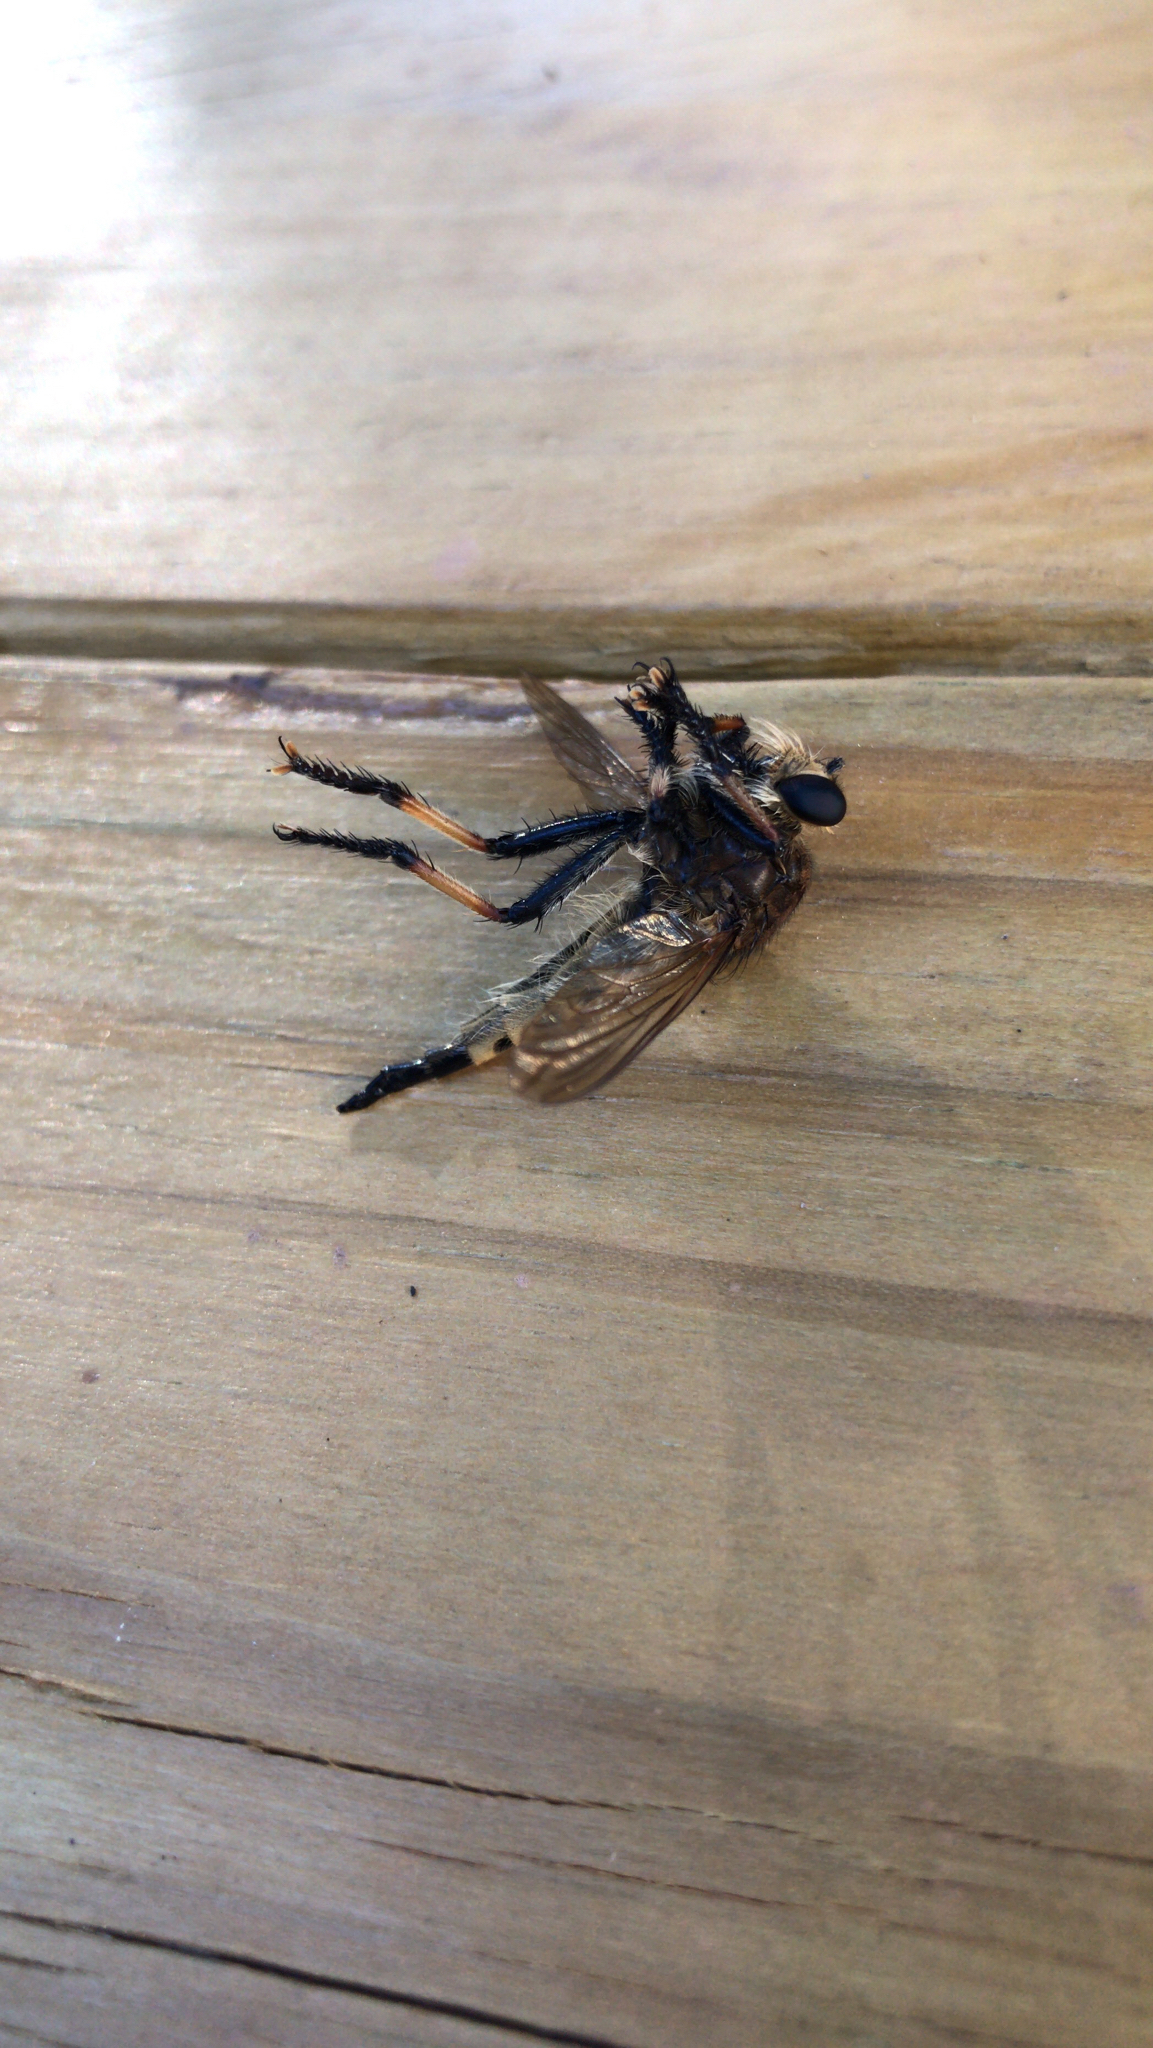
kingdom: Animalia
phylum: Arthropoda
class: Insecta
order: Diptera
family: Asilidae
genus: Promachus
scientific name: Promachus rufipes
